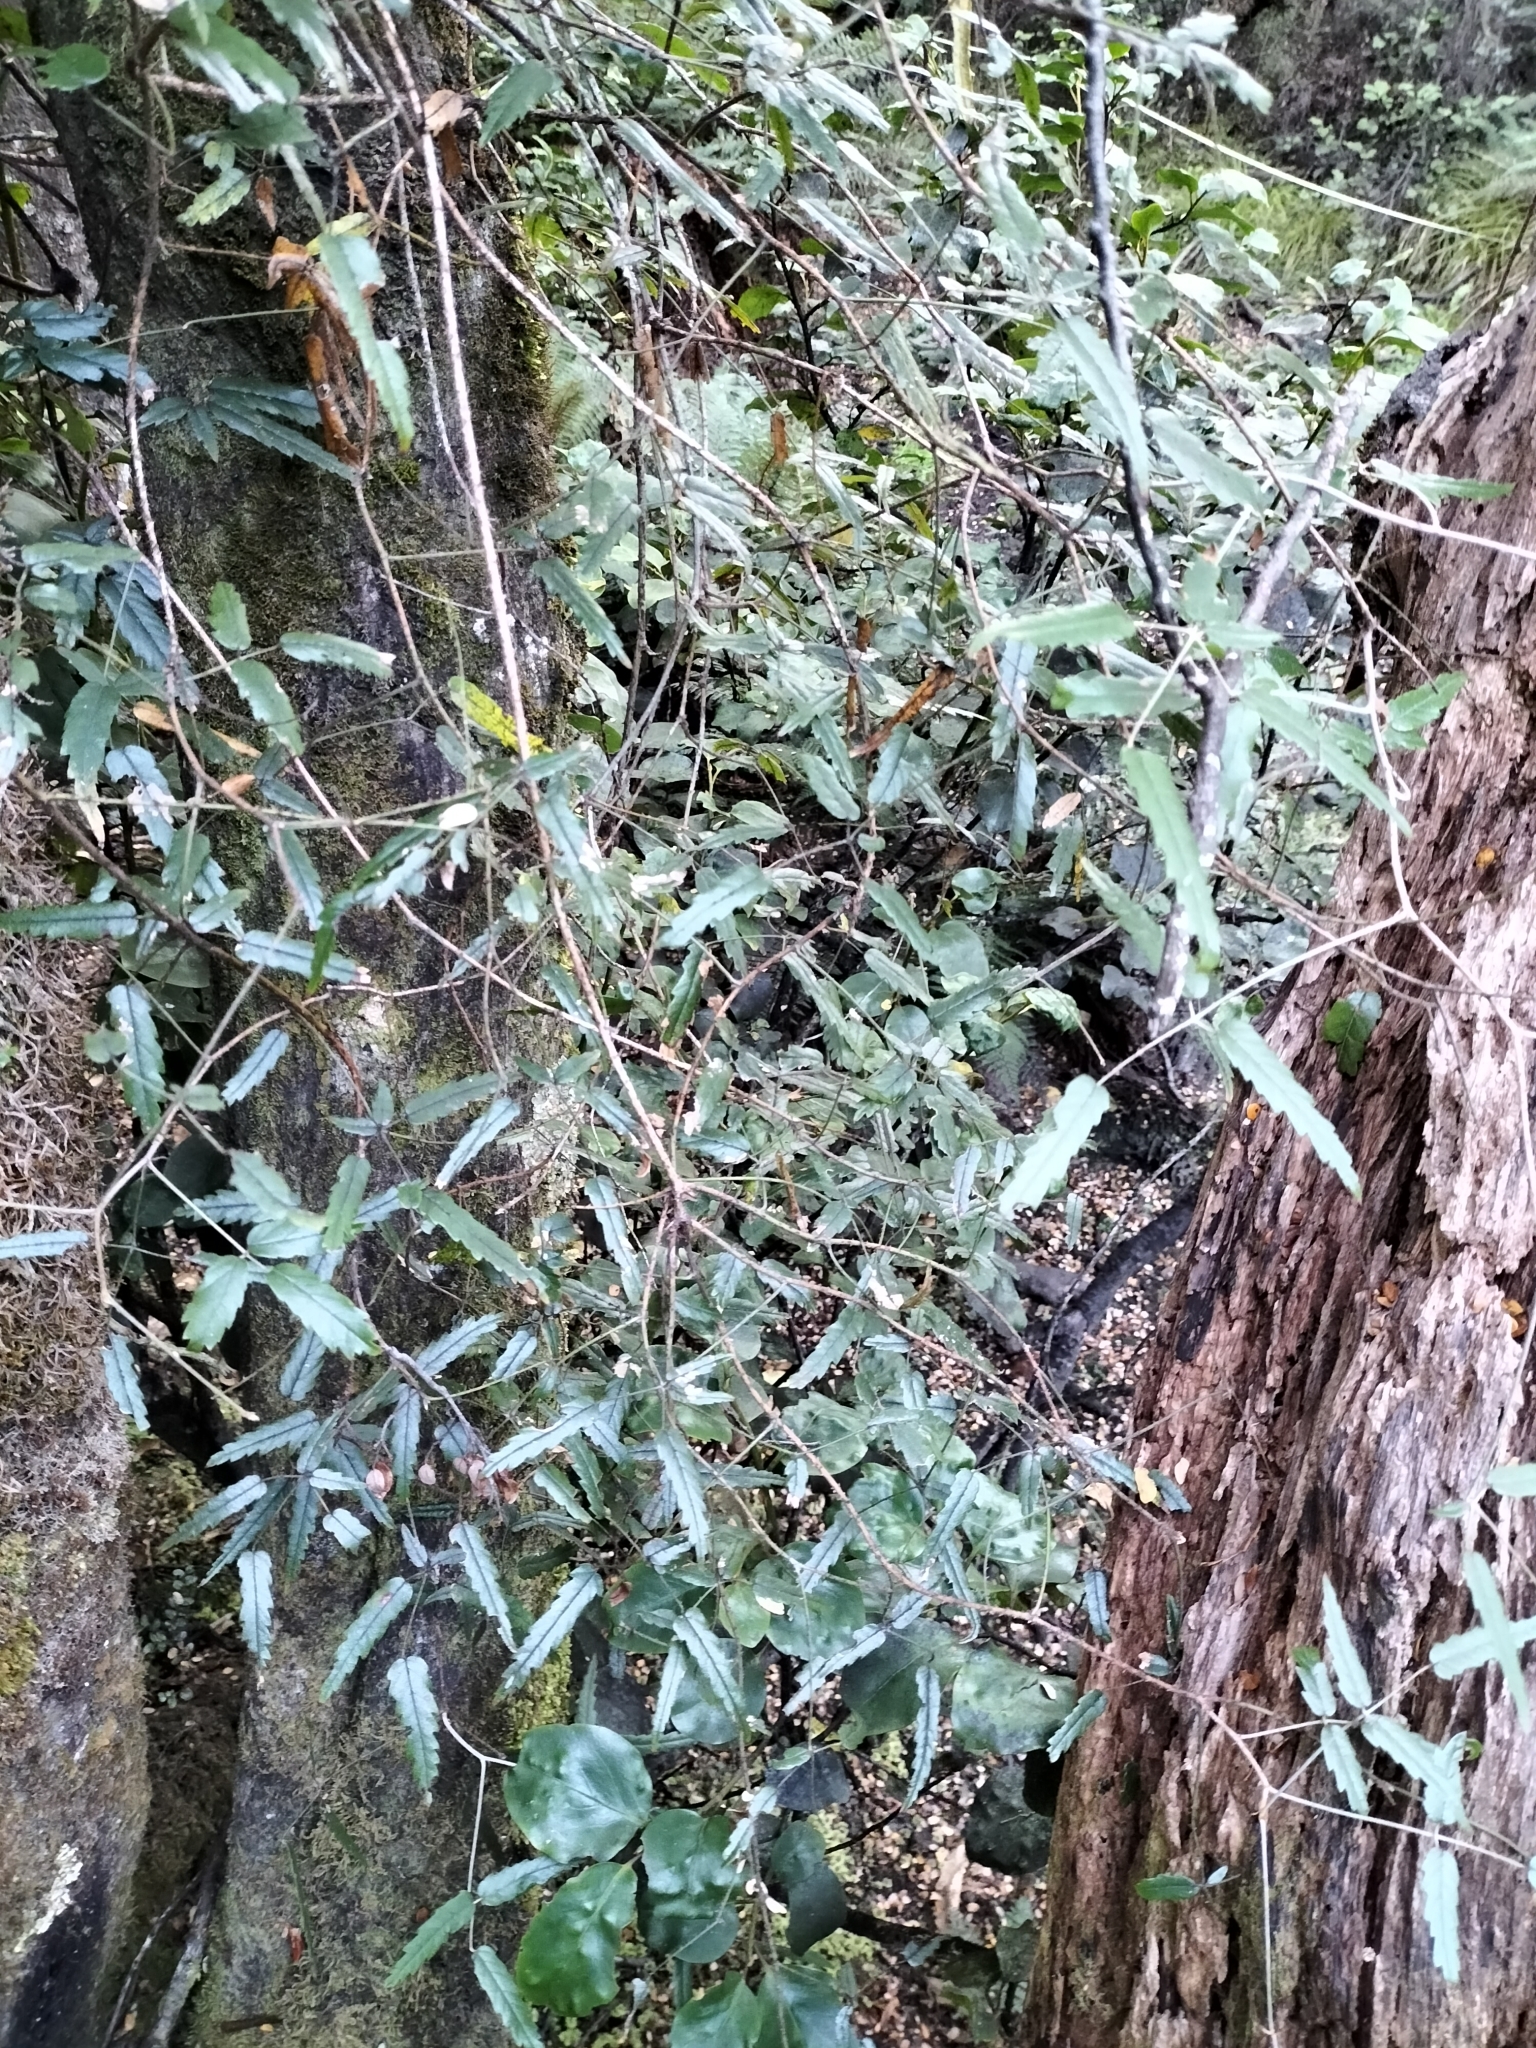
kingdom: Plantae
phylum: Tracheophyta
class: Magnoliopsida
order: Rosales
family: Rosaceae
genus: Rubus
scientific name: Rubus schmidelioides
